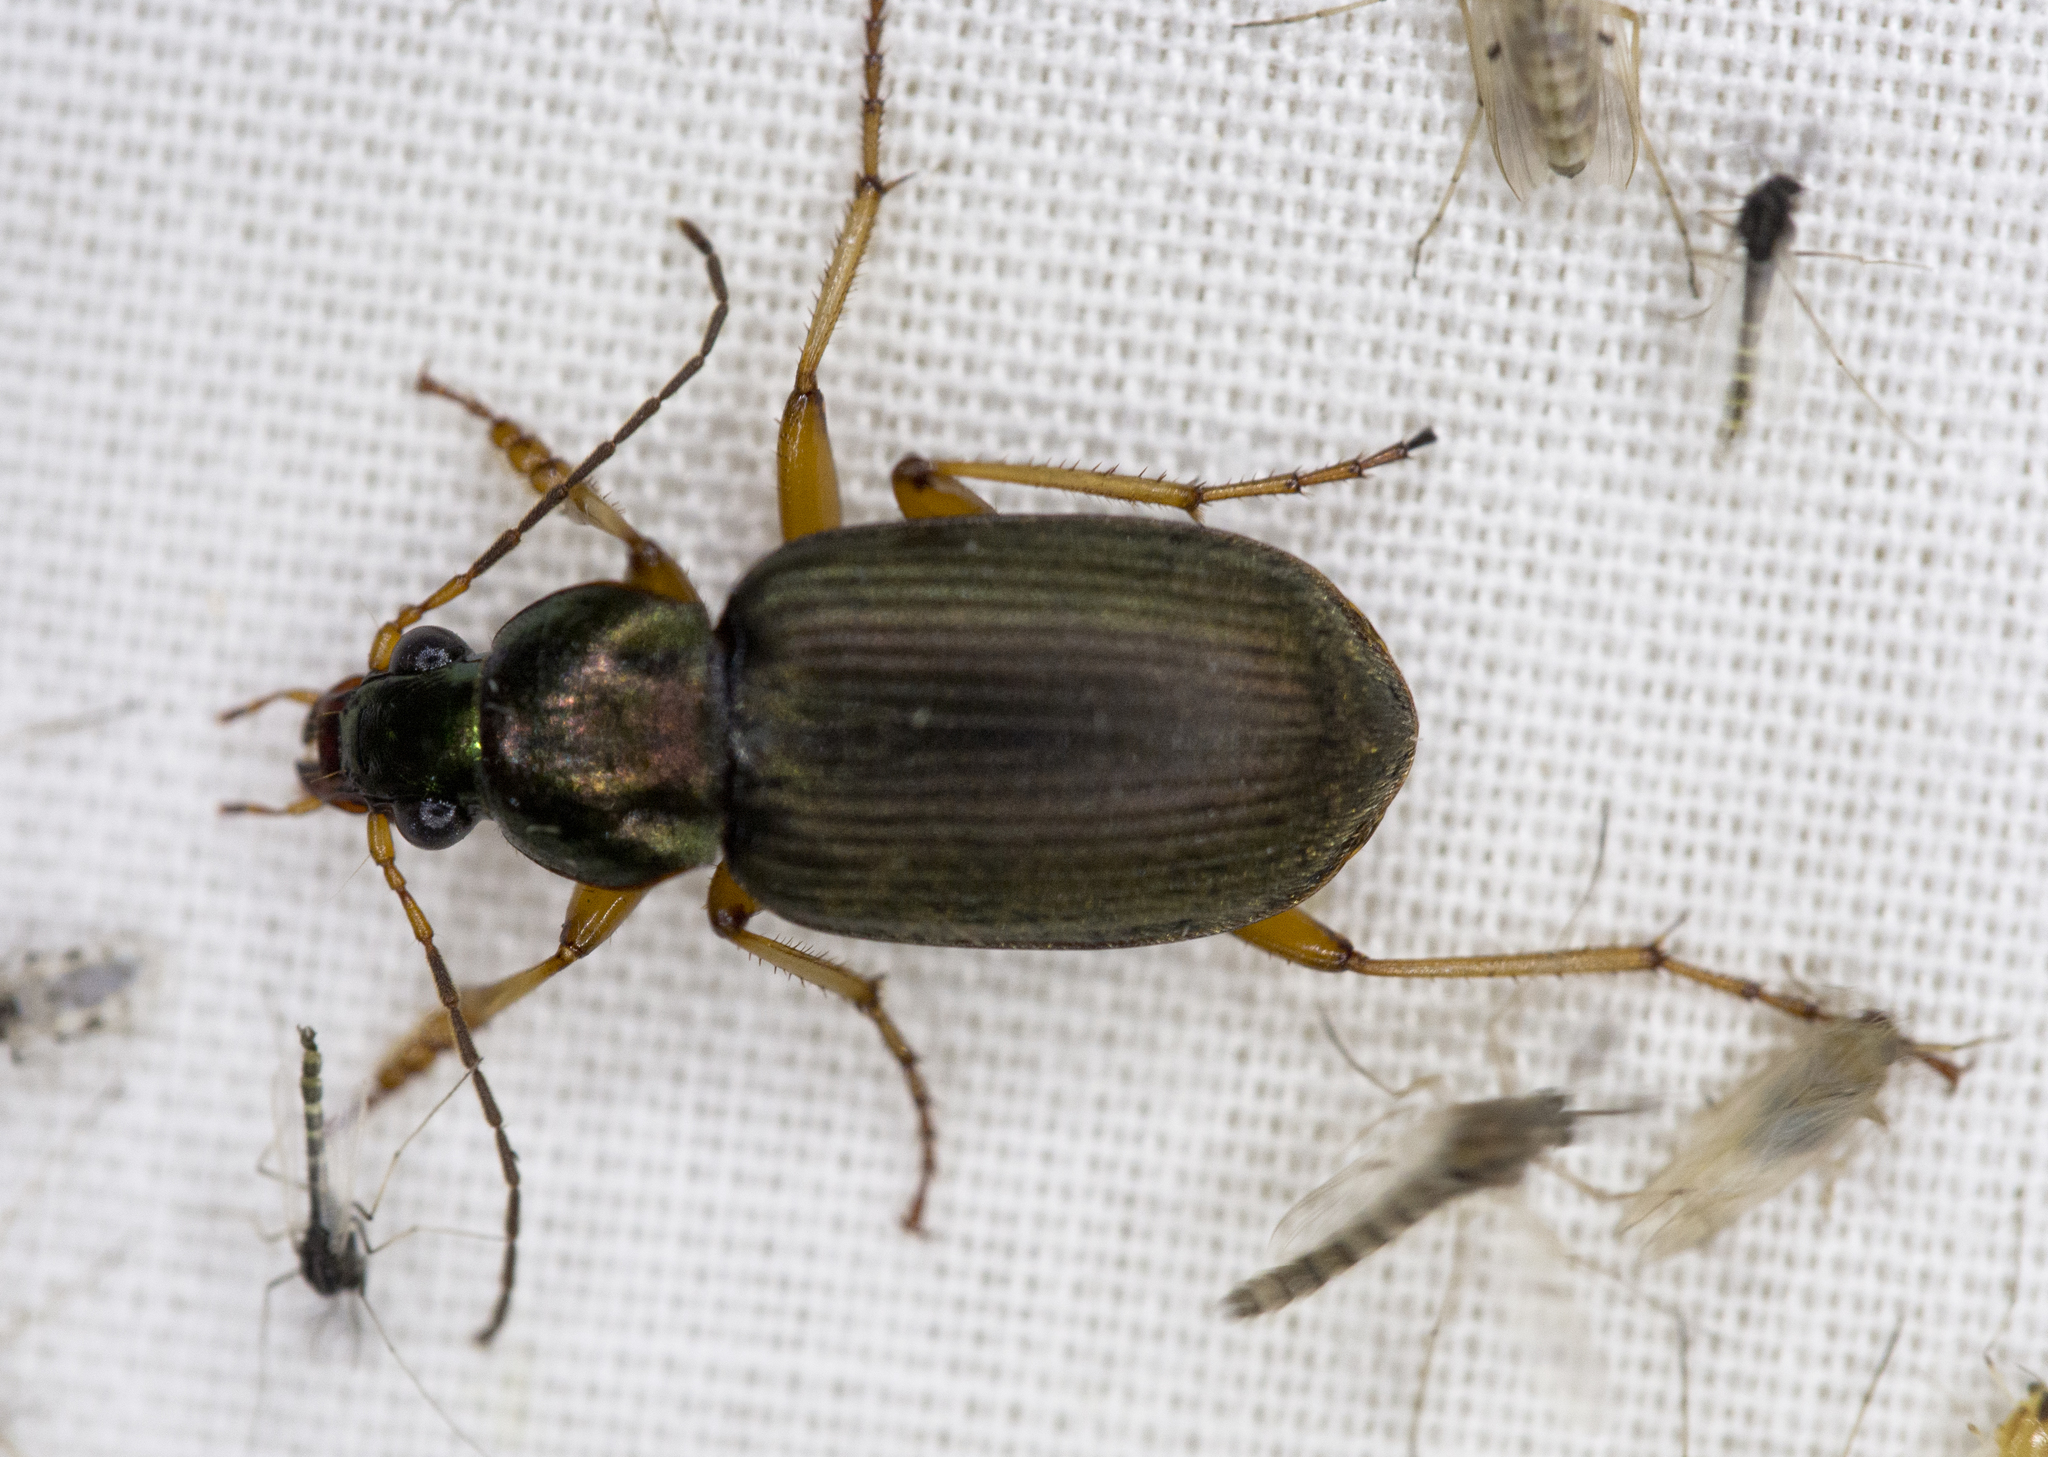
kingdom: Animalia
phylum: Arthropoda
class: Insecta
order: Coleoptera
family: Carabidae
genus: Chlaenius
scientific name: Chlaenius pennsylvanicus
